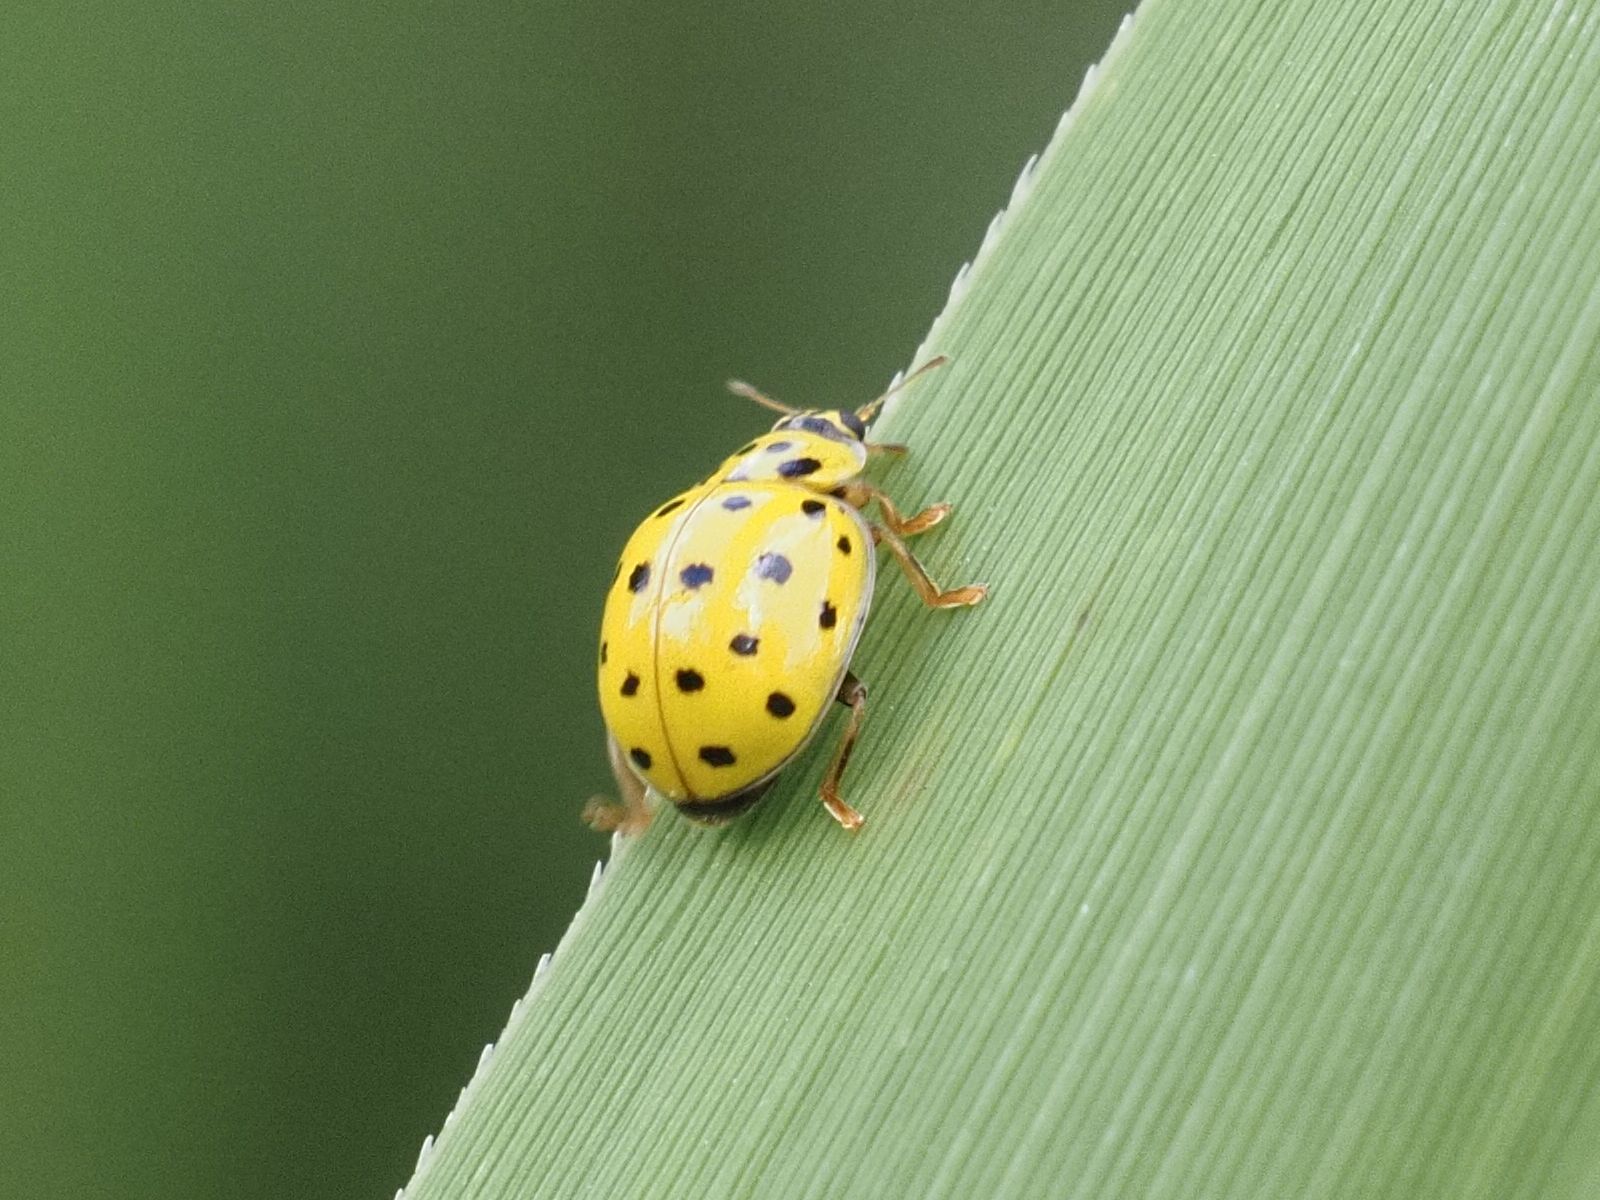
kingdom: Animalia
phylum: Arthropoda
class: Insecta
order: Coleoptera
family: Coccinellidae
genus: Psyllobora
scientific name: Psyllobora vigintiduopunctata
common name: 22-spot ladybird
